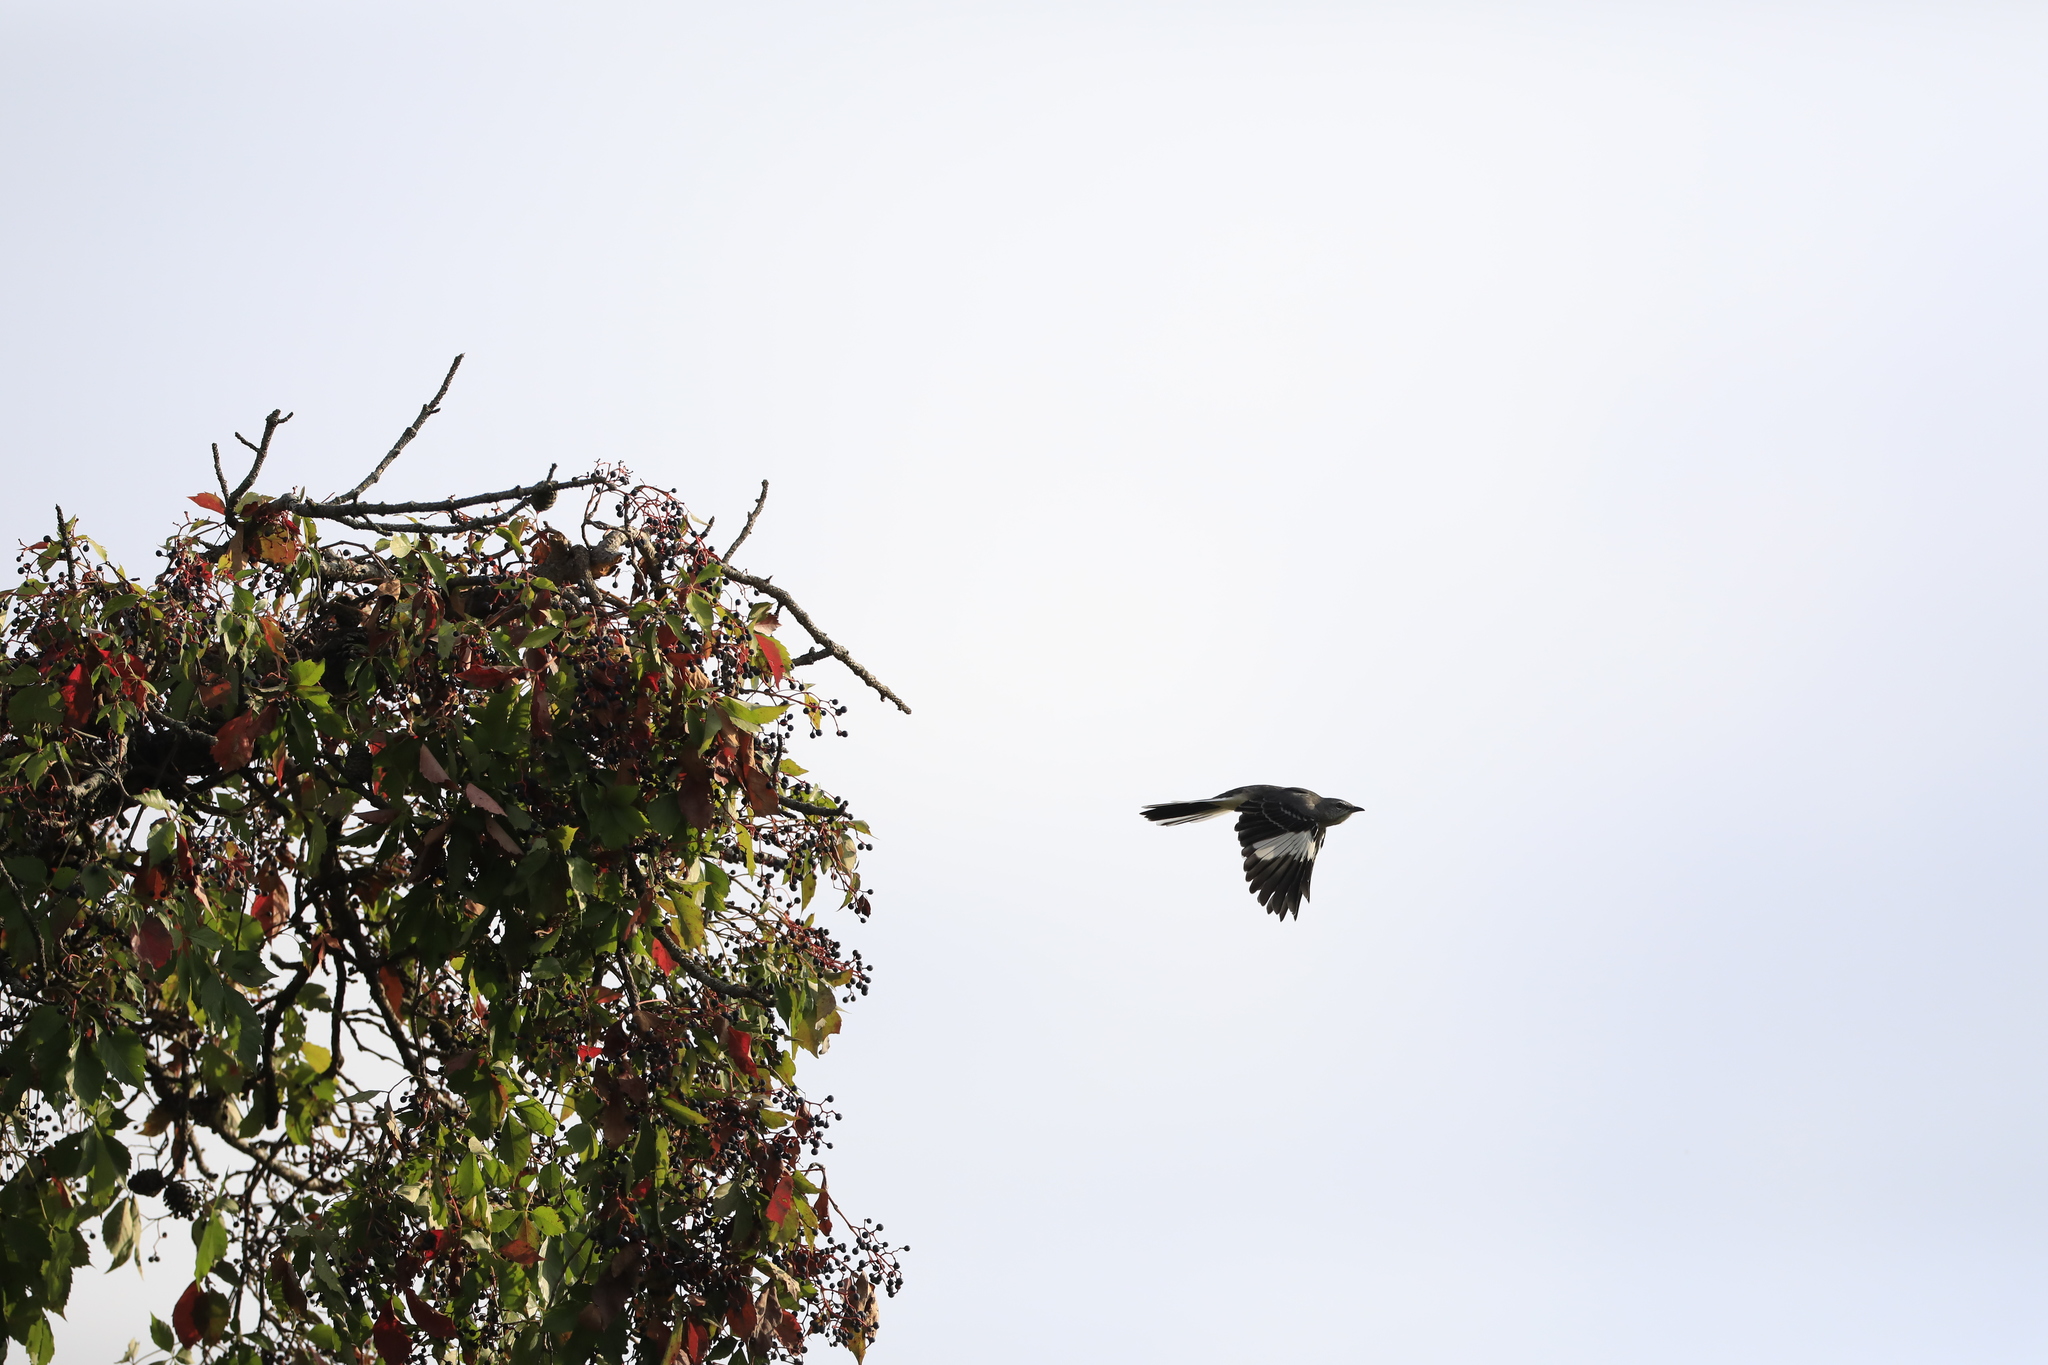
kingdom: Animalia
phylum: Chordata
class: Aves
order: Passeriformes
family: Mimidae
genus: Mimus
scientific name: Mimus polyglottos
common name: Northern mockingbird
